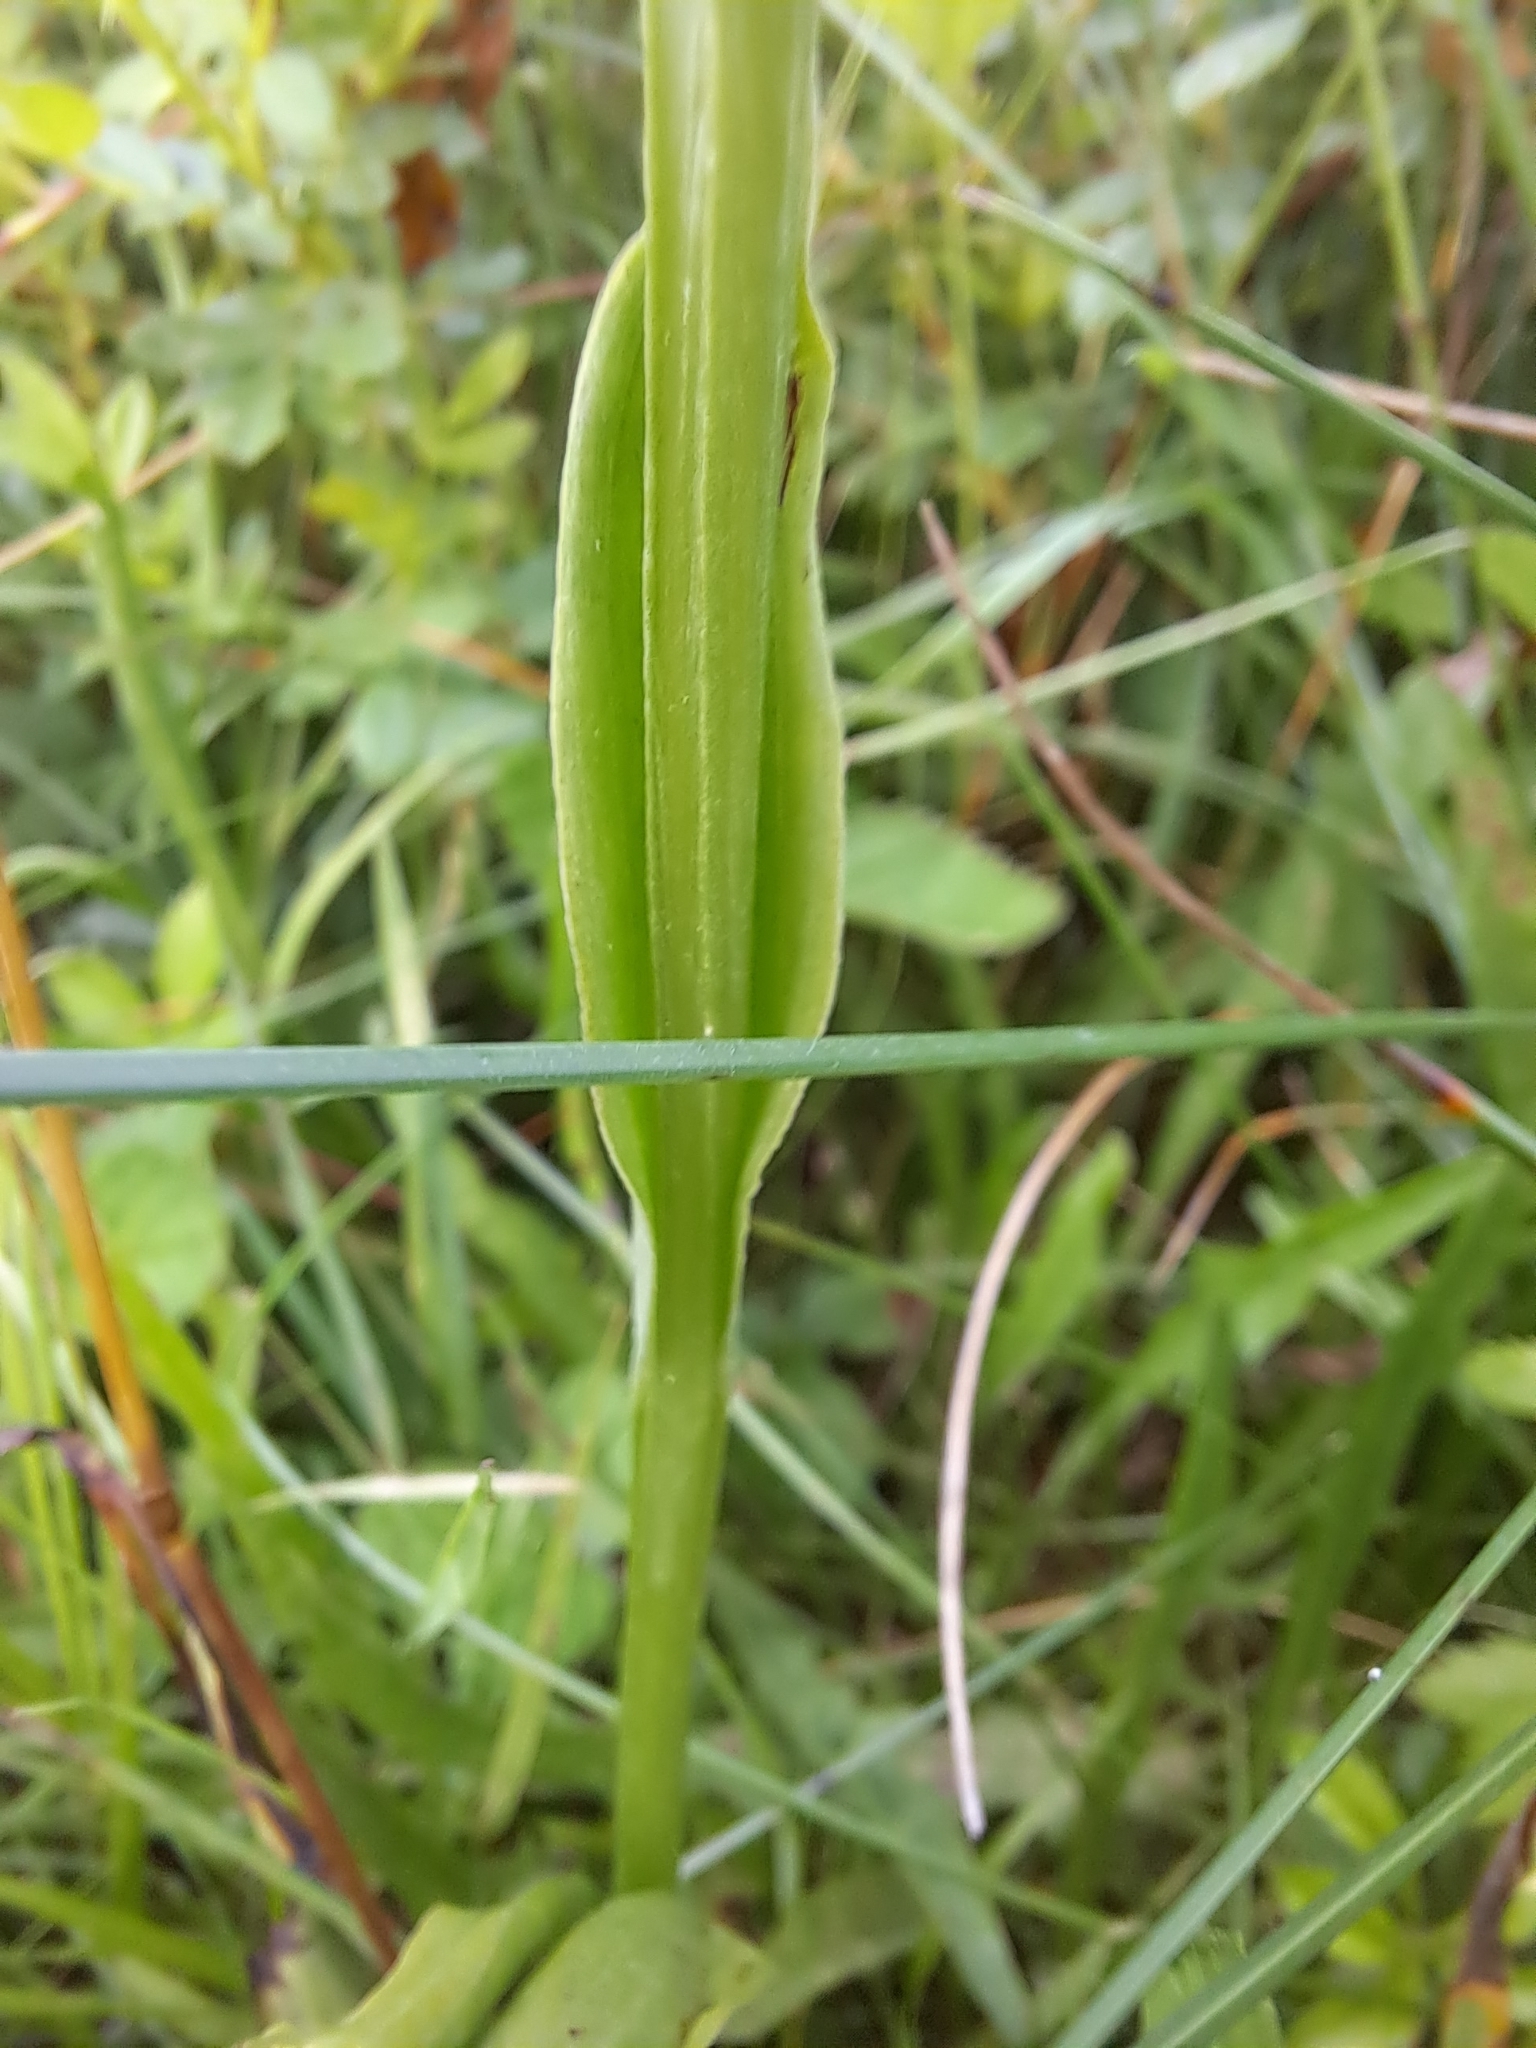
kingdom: Plantae
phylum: Tracheophyta
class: Liliopsida
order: Asparagales
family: Orchidaceae
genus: Platanthera
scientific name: Platanthera lacera
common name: Green fringed orchid
